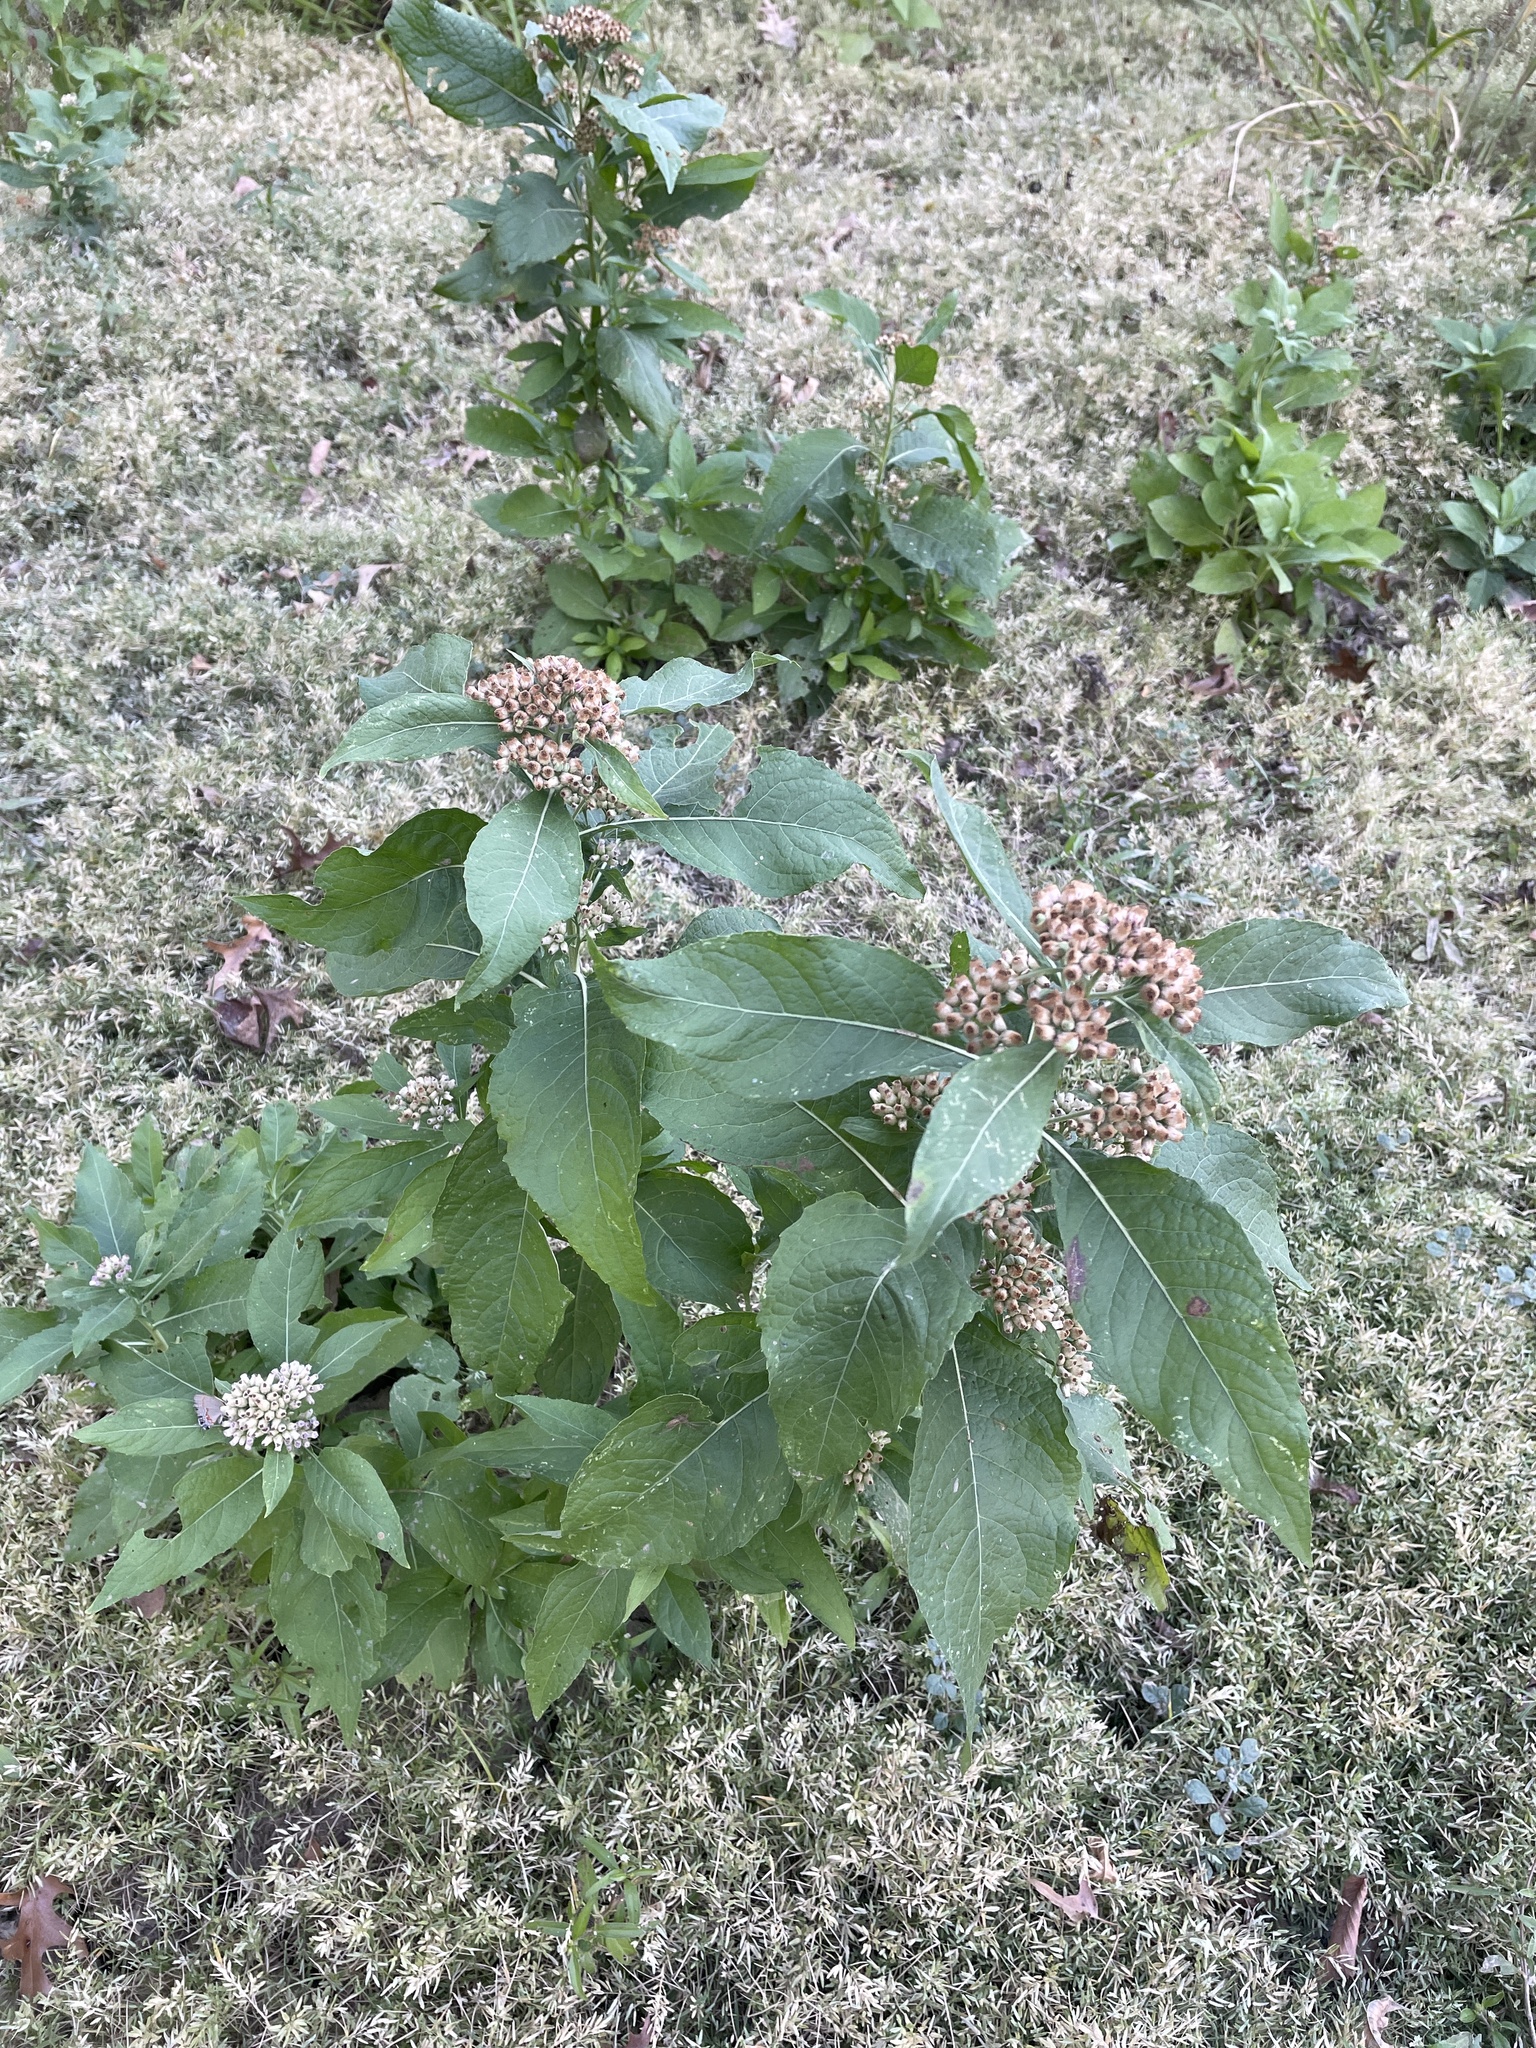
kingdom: Plantae
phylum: Tracheophyta
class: Magnoliopsida
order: Asterales
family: Asteraceae
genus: Pluchea
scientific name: Pluchea camphorata
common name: Camphor pluchea
